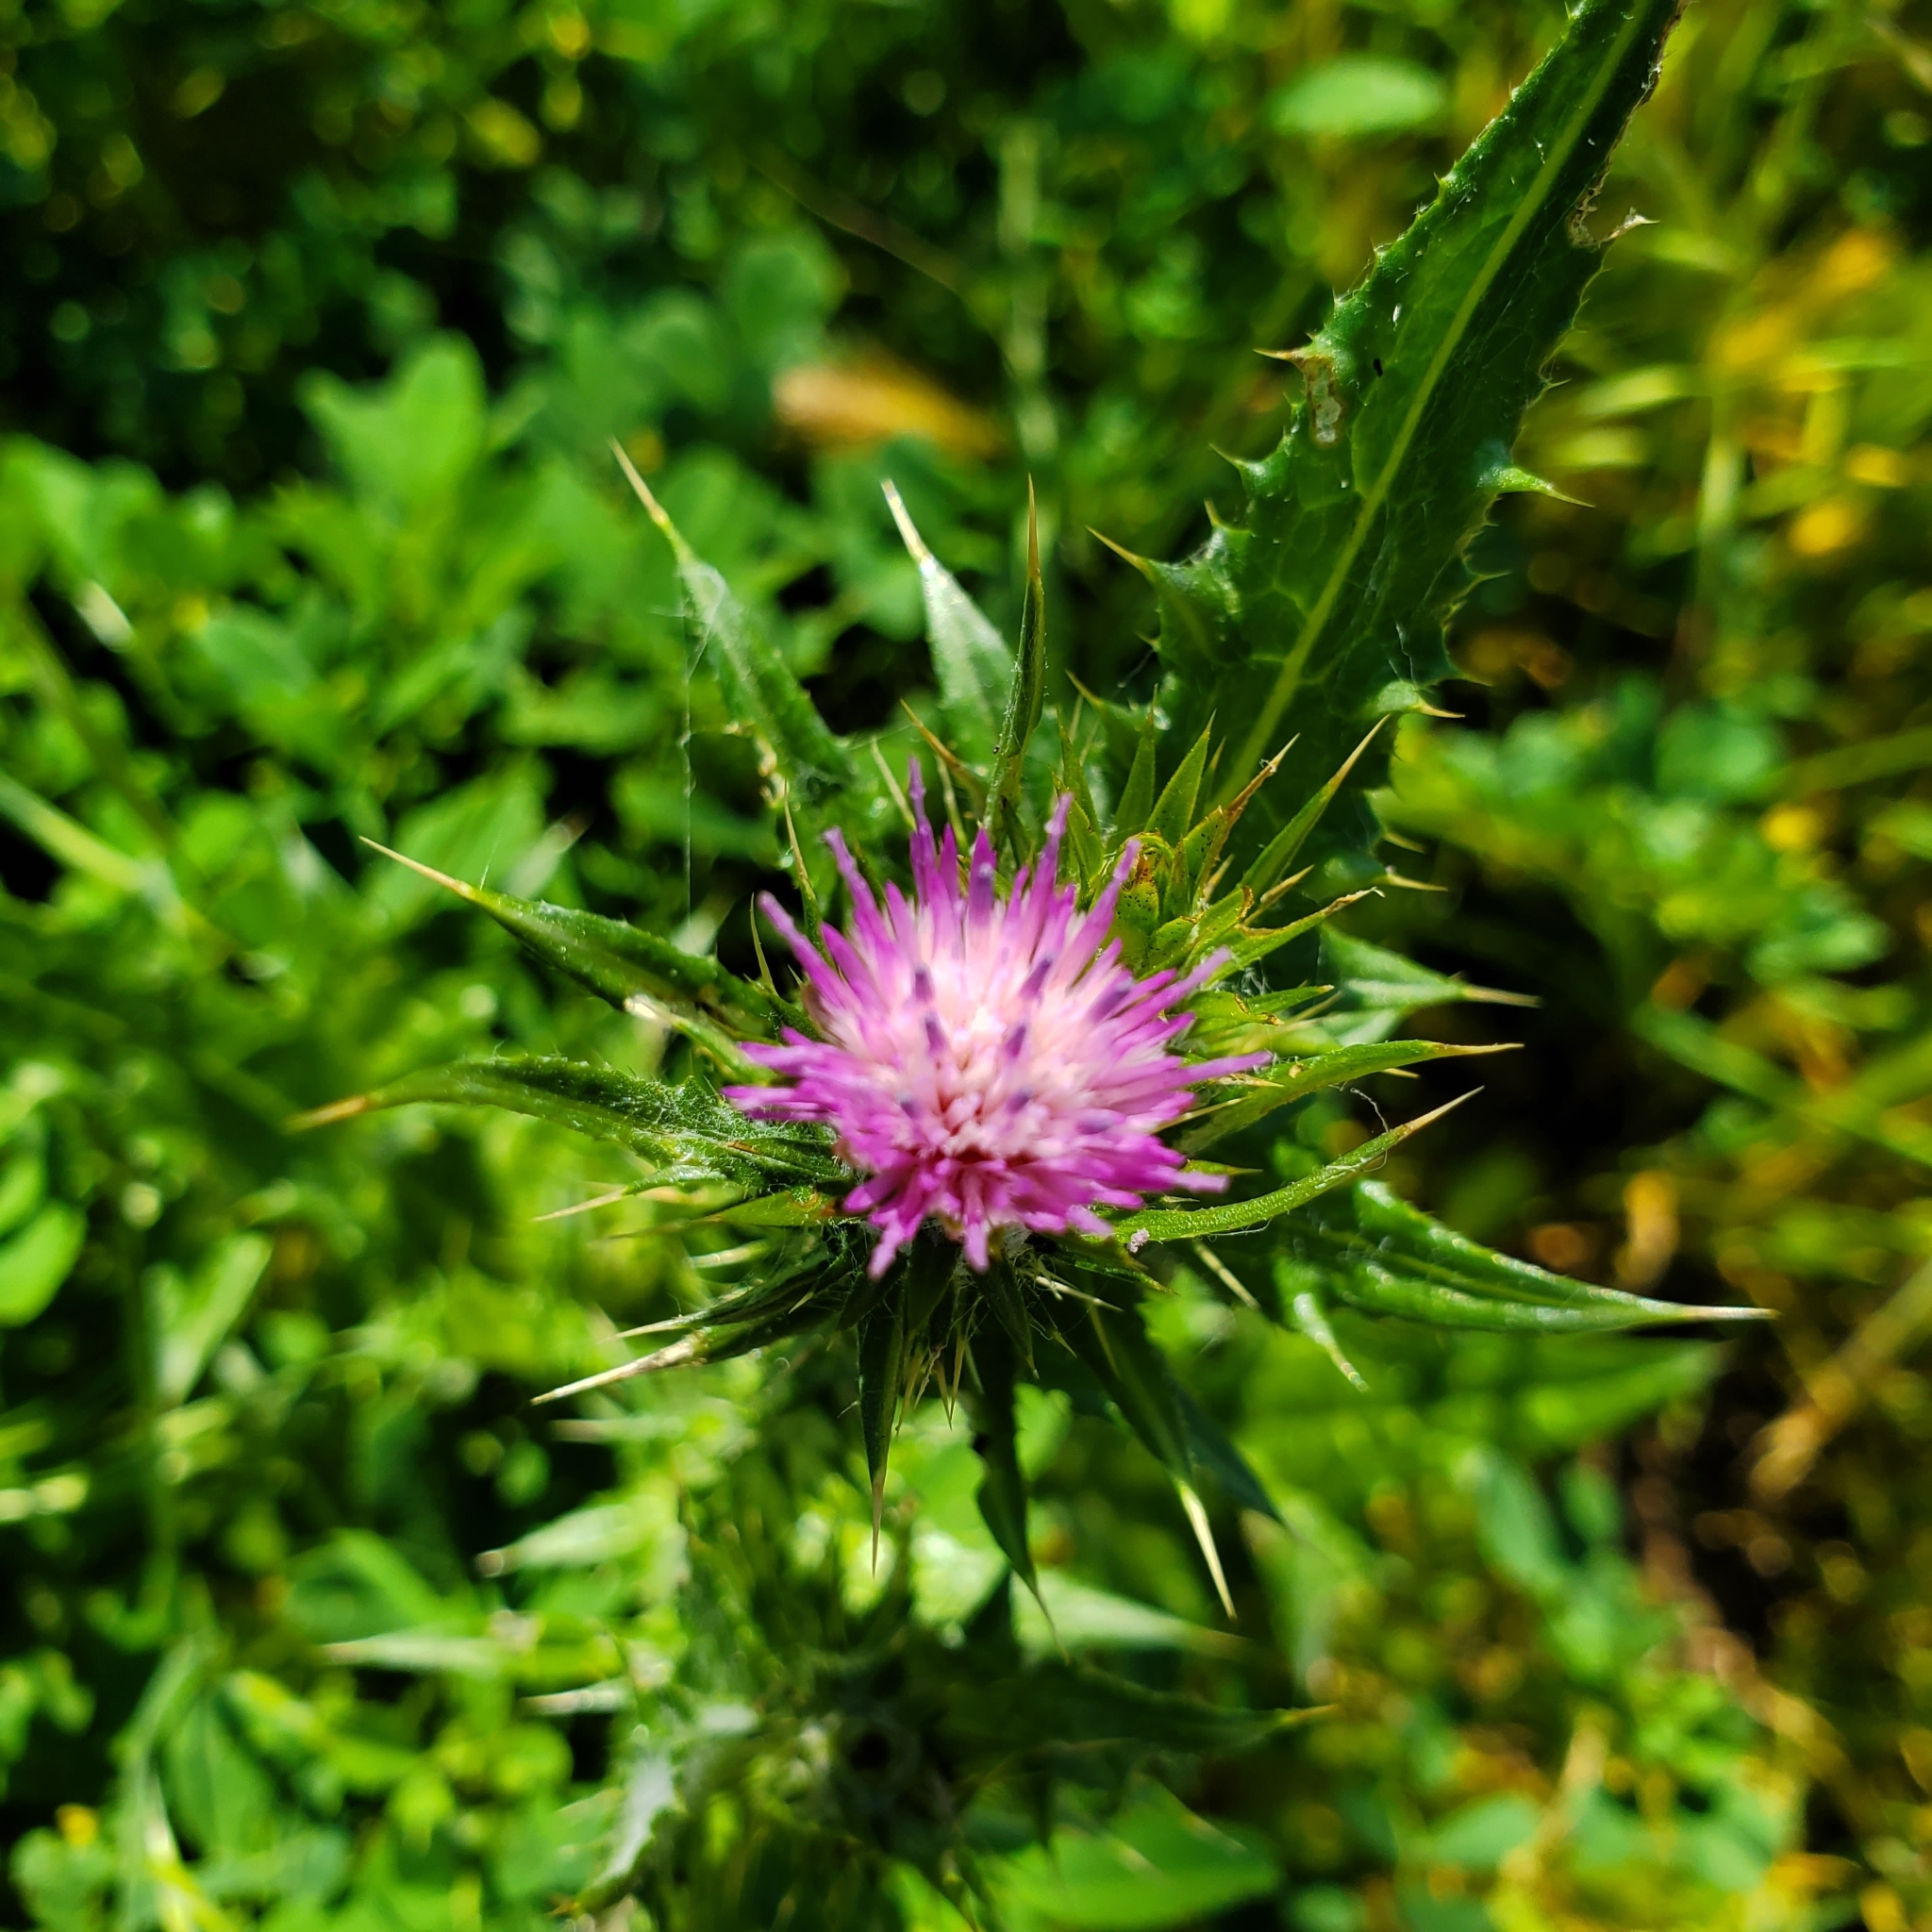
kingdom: Plantae
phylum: Tracheophyta
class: Magnoliopsida
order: Asterales
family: Asteraceae
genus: Carduus
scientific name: Carduus pycnocephalus
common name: Plymouth thistle
